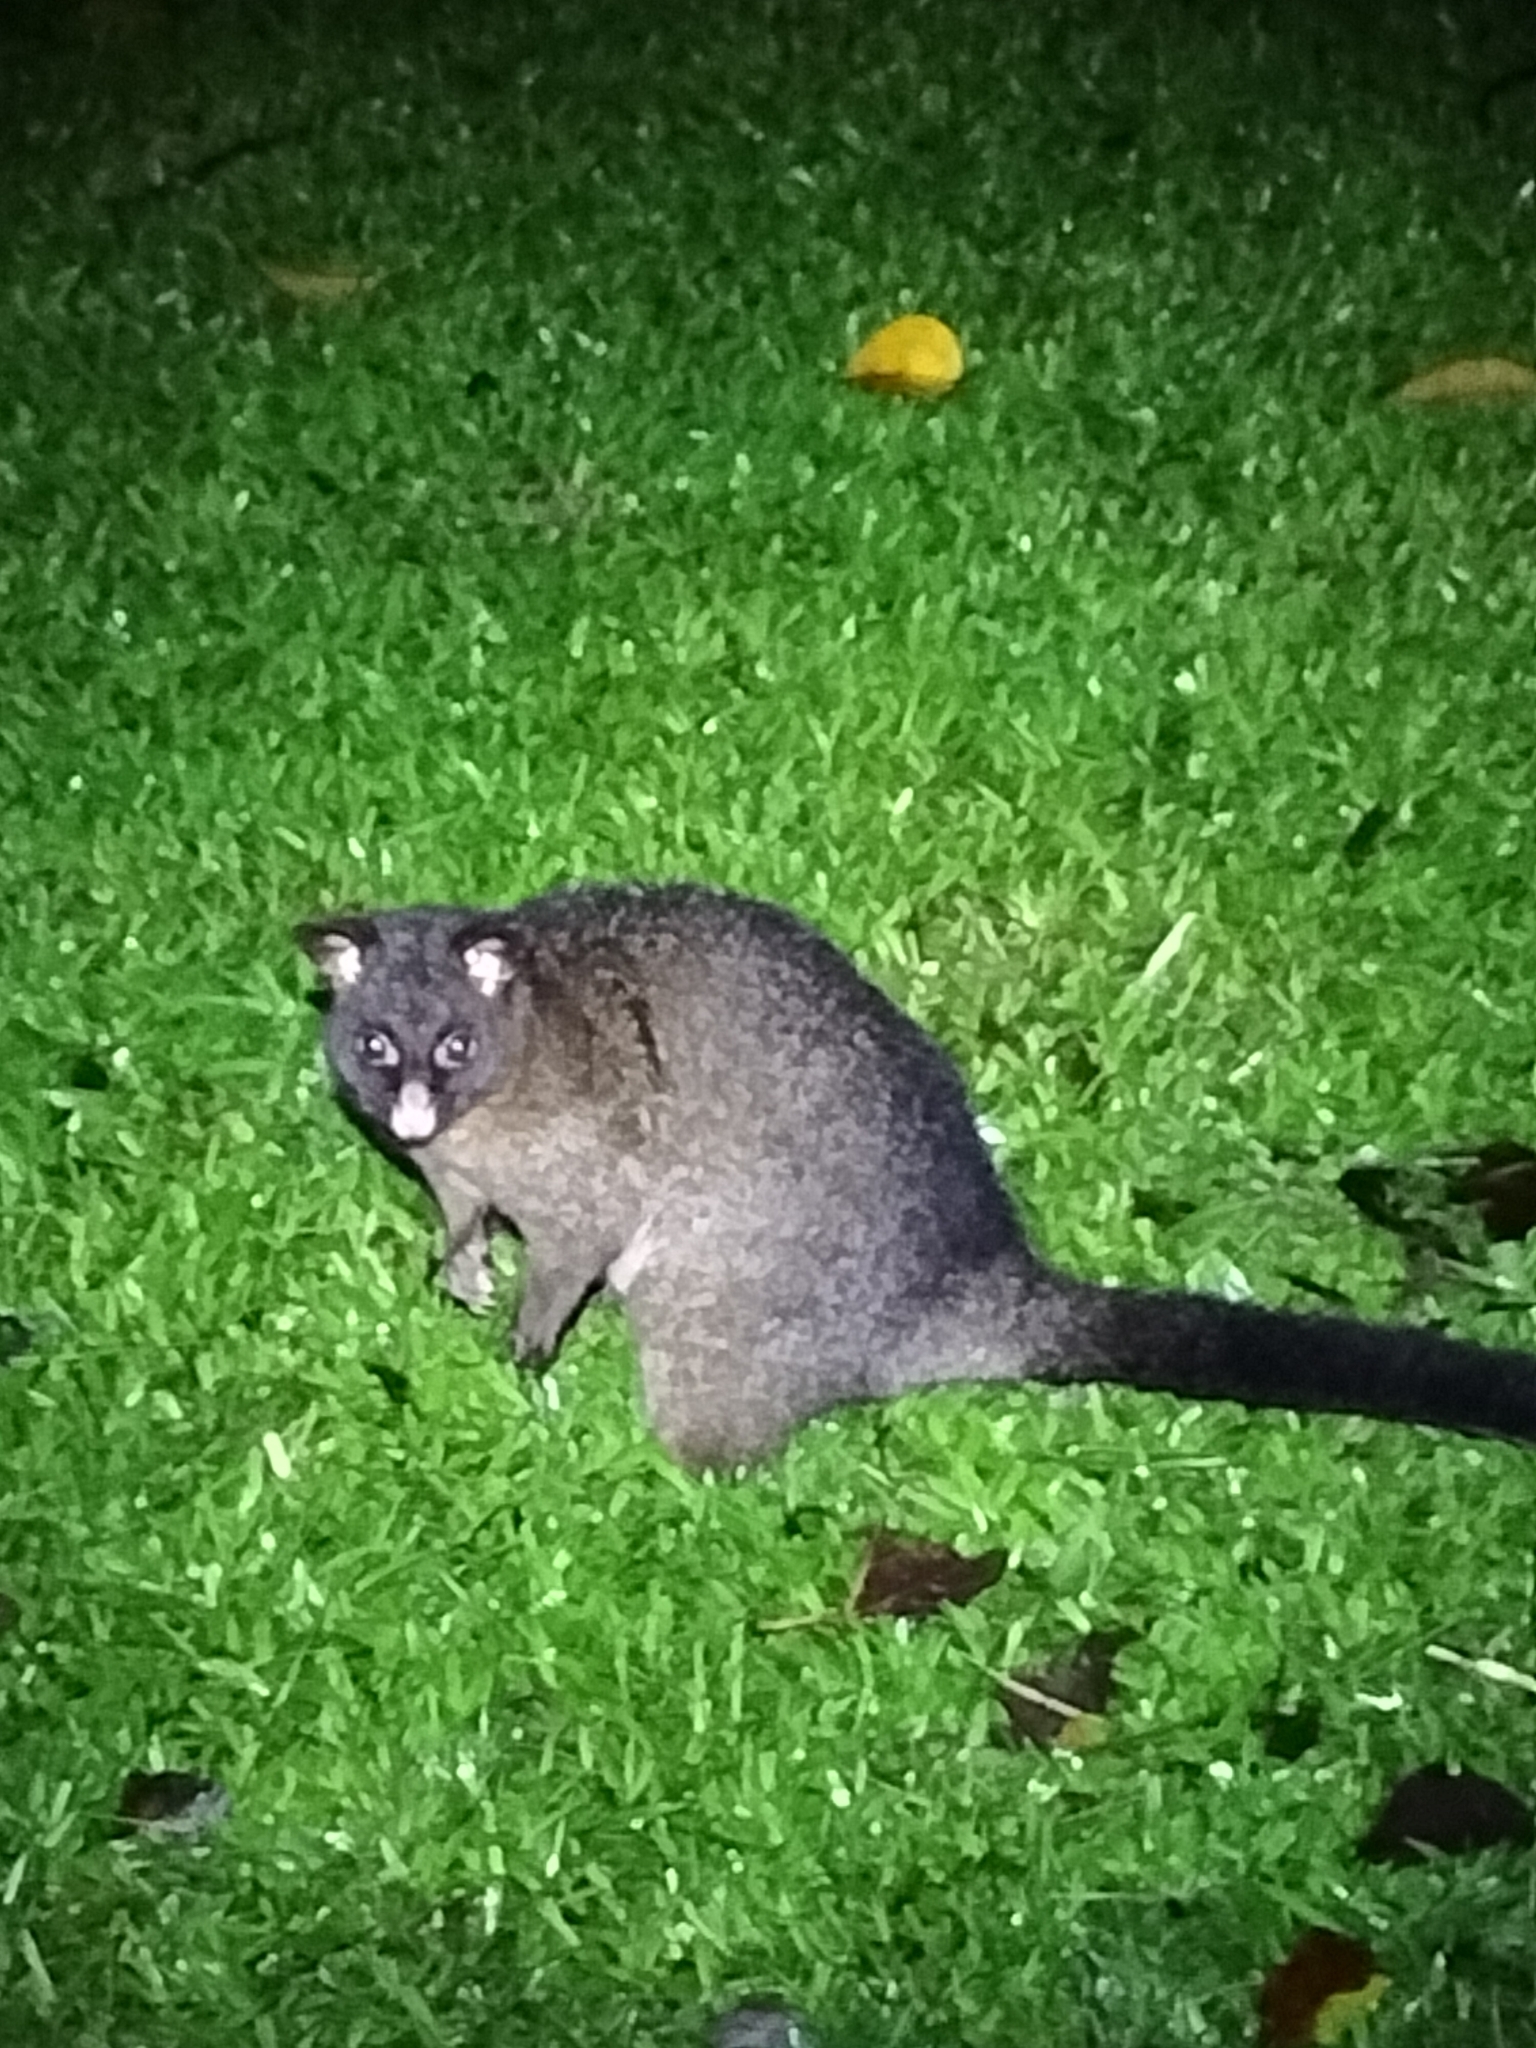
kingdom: Animalia
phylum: Chordata
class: Mammalia
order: Diprotodontia
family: Phalangeridae
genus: Trichosurus
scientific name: Trichosurus vulpecula
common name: Common brushtail
